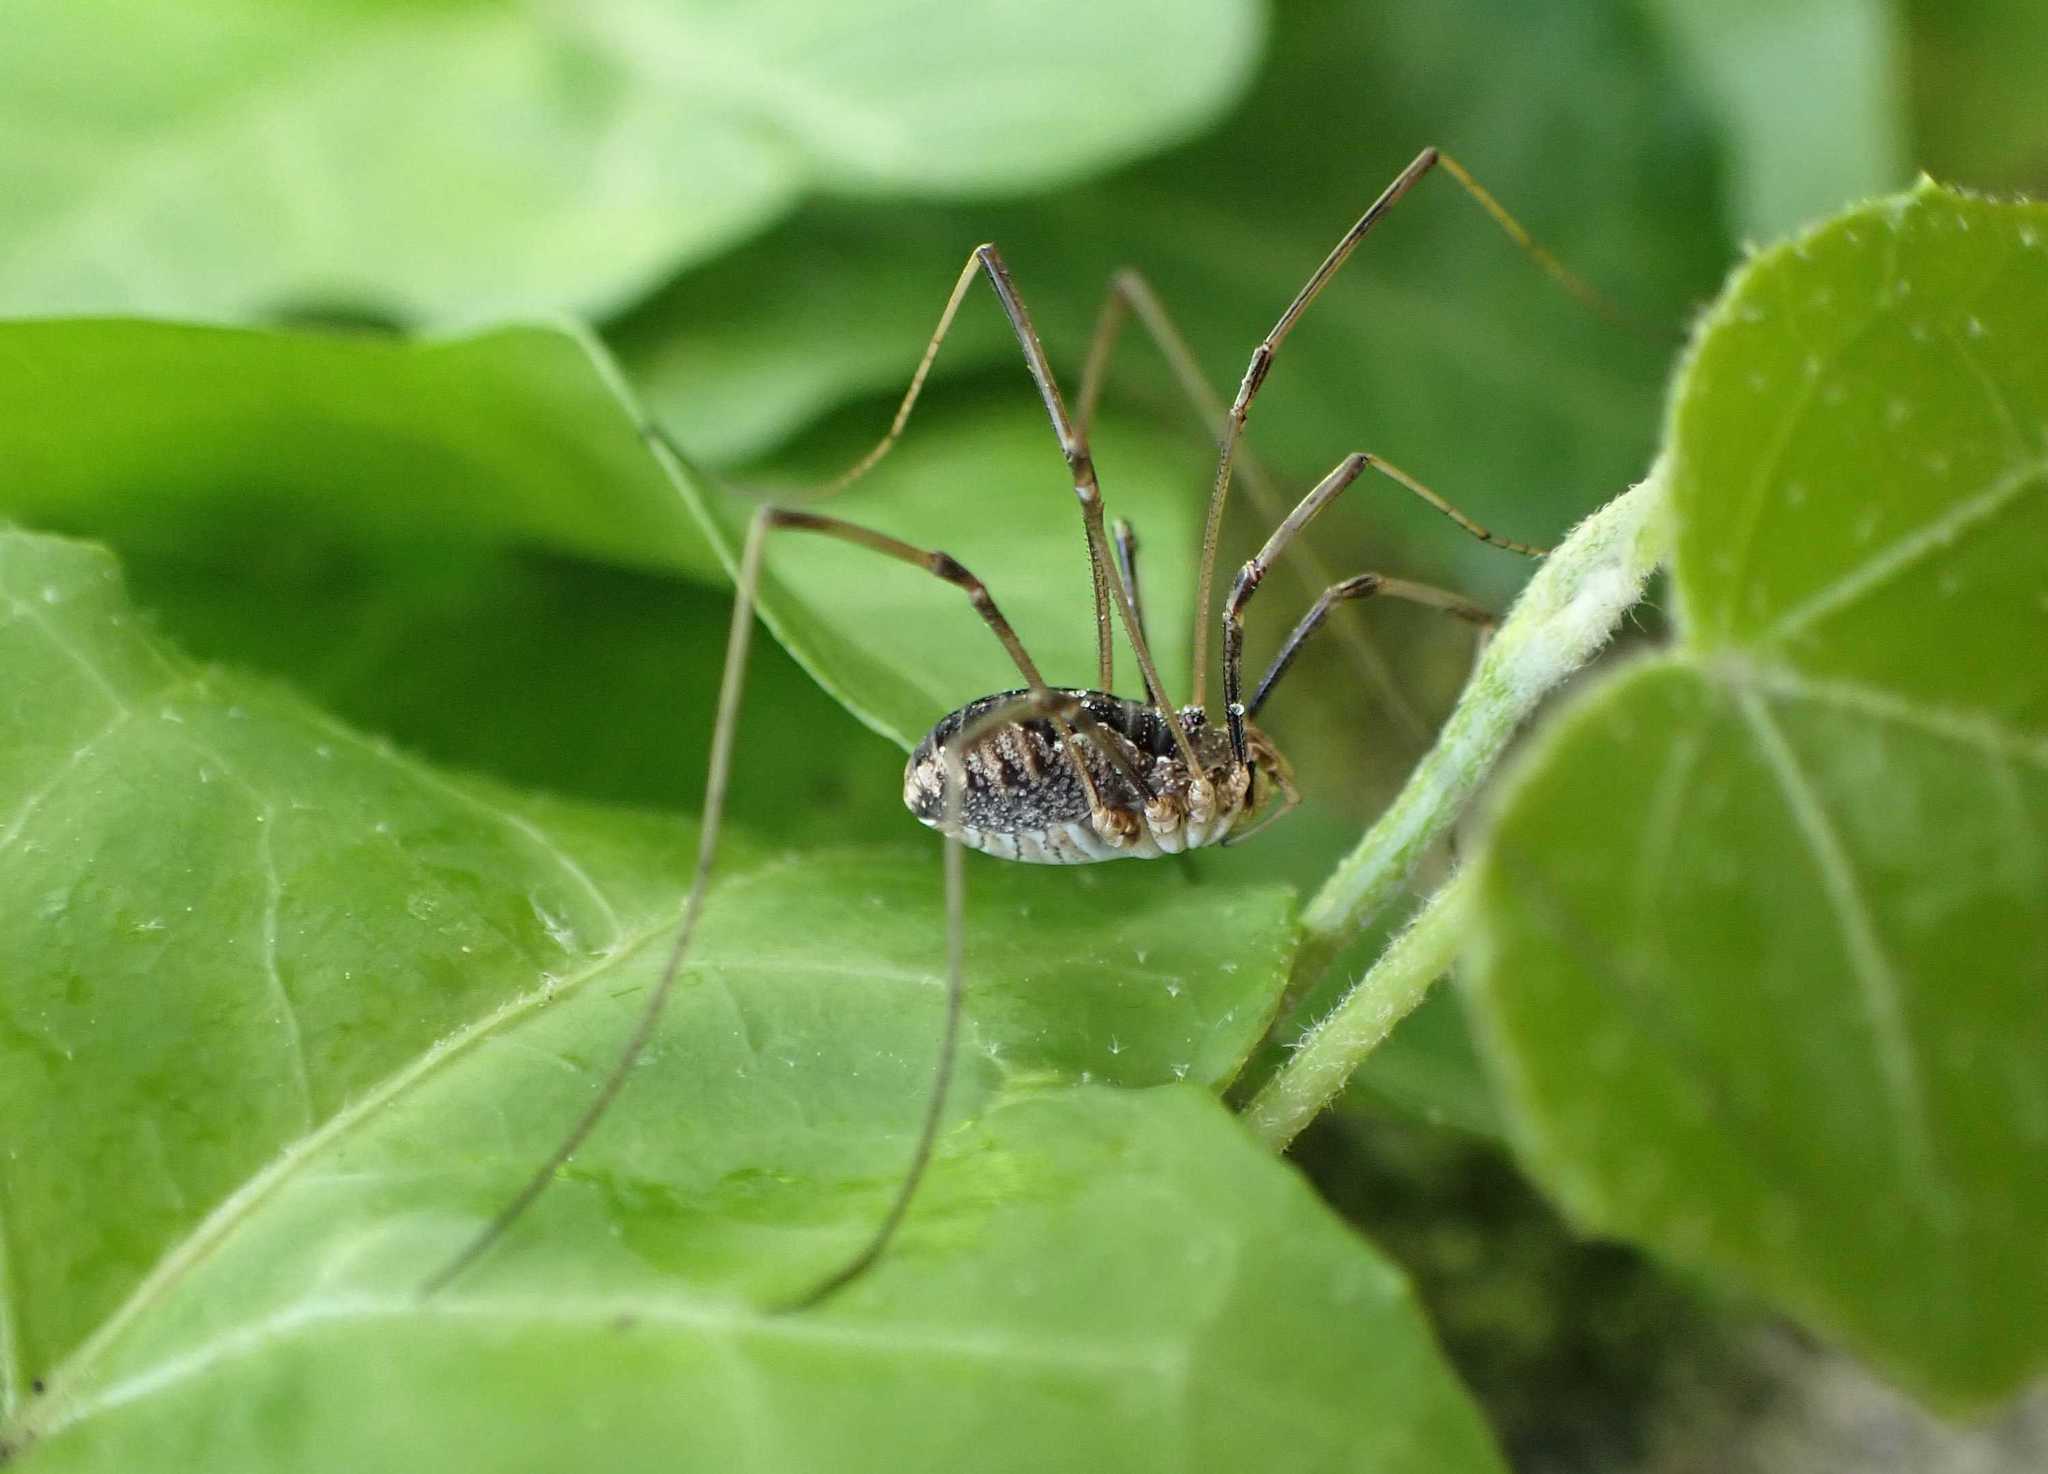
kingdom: Animalia
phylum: Arthropoda
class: Arachnida
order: Opiliones
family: Phalangiidae
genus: Phalangium
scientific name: Phalangium opilio
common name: Daddy longleg
